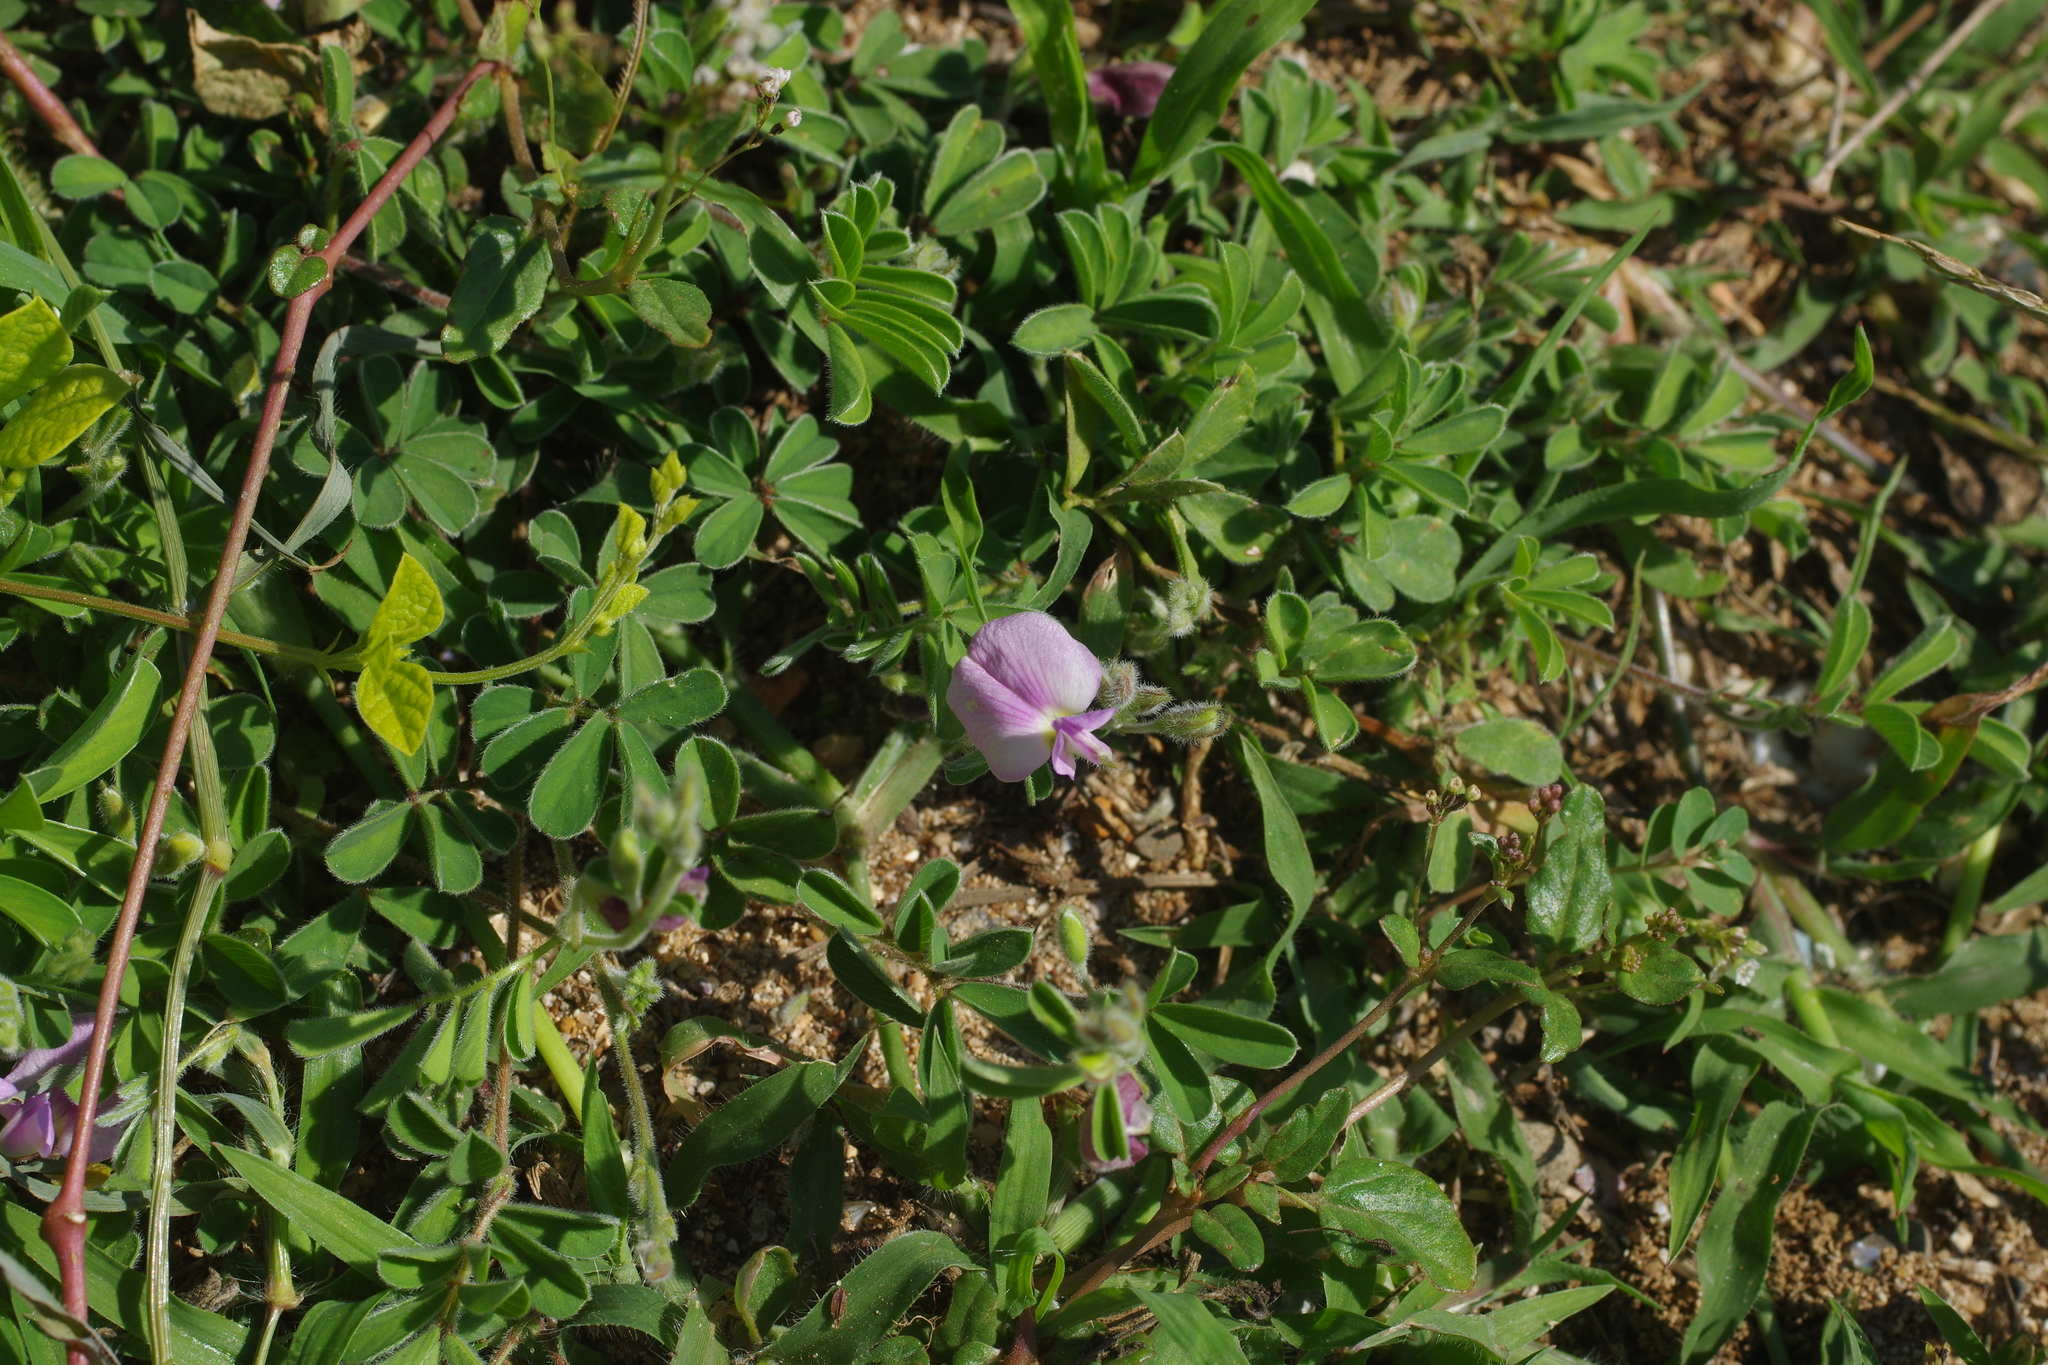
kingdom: Plantae
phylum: Tracheophyta
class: Magnoliopsida
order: Fabales
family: Fabaceae
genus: Tephrosia
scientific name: Tephrosia obovata
